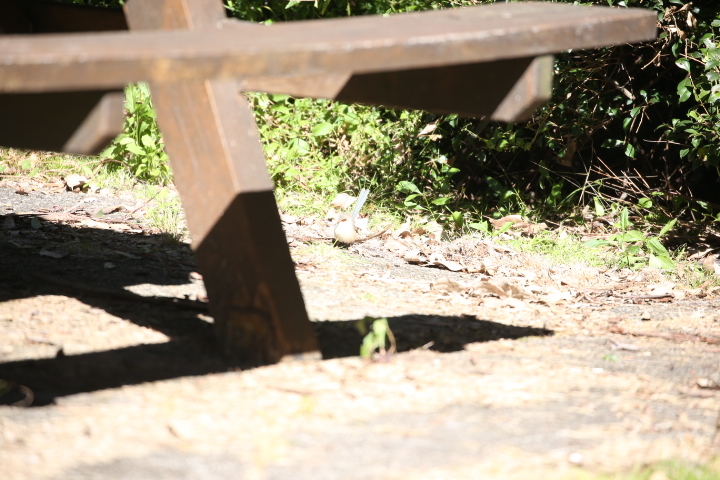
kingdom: Animalia
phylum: Chordata
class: Aves
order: Passeriformes
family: Maluridae
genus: Malurus
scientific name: Malurus lamberti
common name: Variegated fairywren
